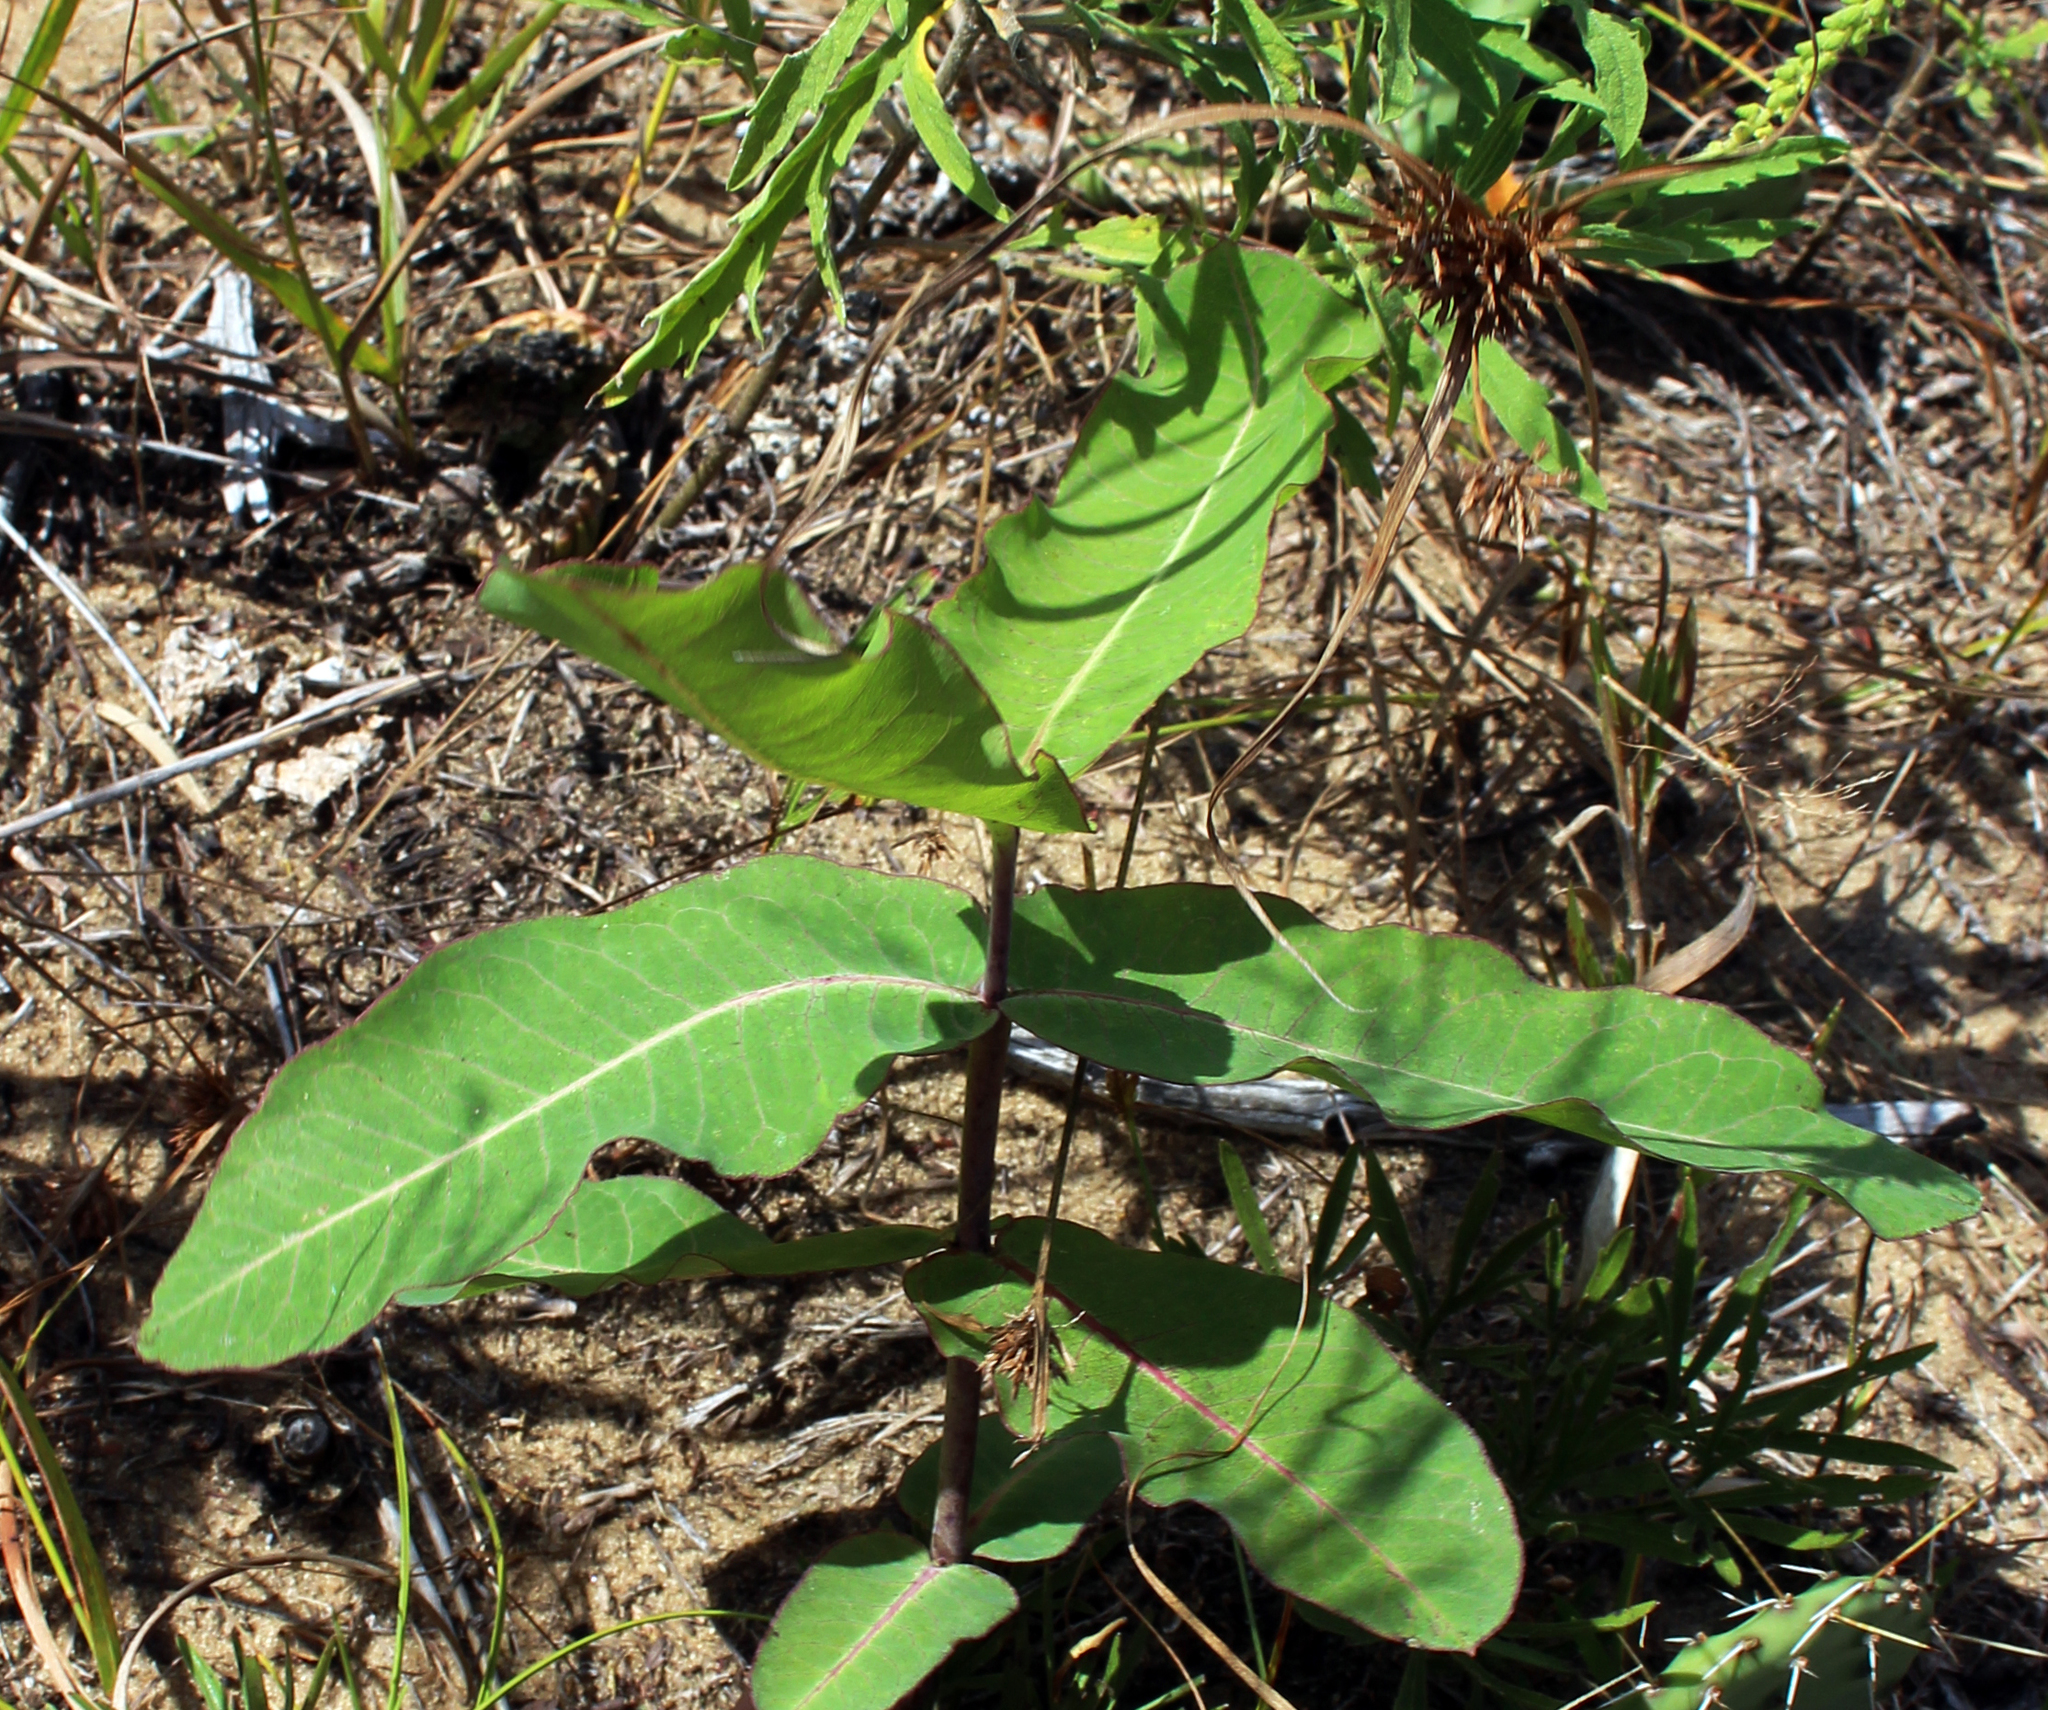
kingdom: Plantae
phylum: Tracheophyta
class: Magnoliopsida
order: Gentianales
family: Apocynaceae
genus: Asclepias
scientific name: Asclepias amplexicaulis
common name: Blunt-leaf milkweed
